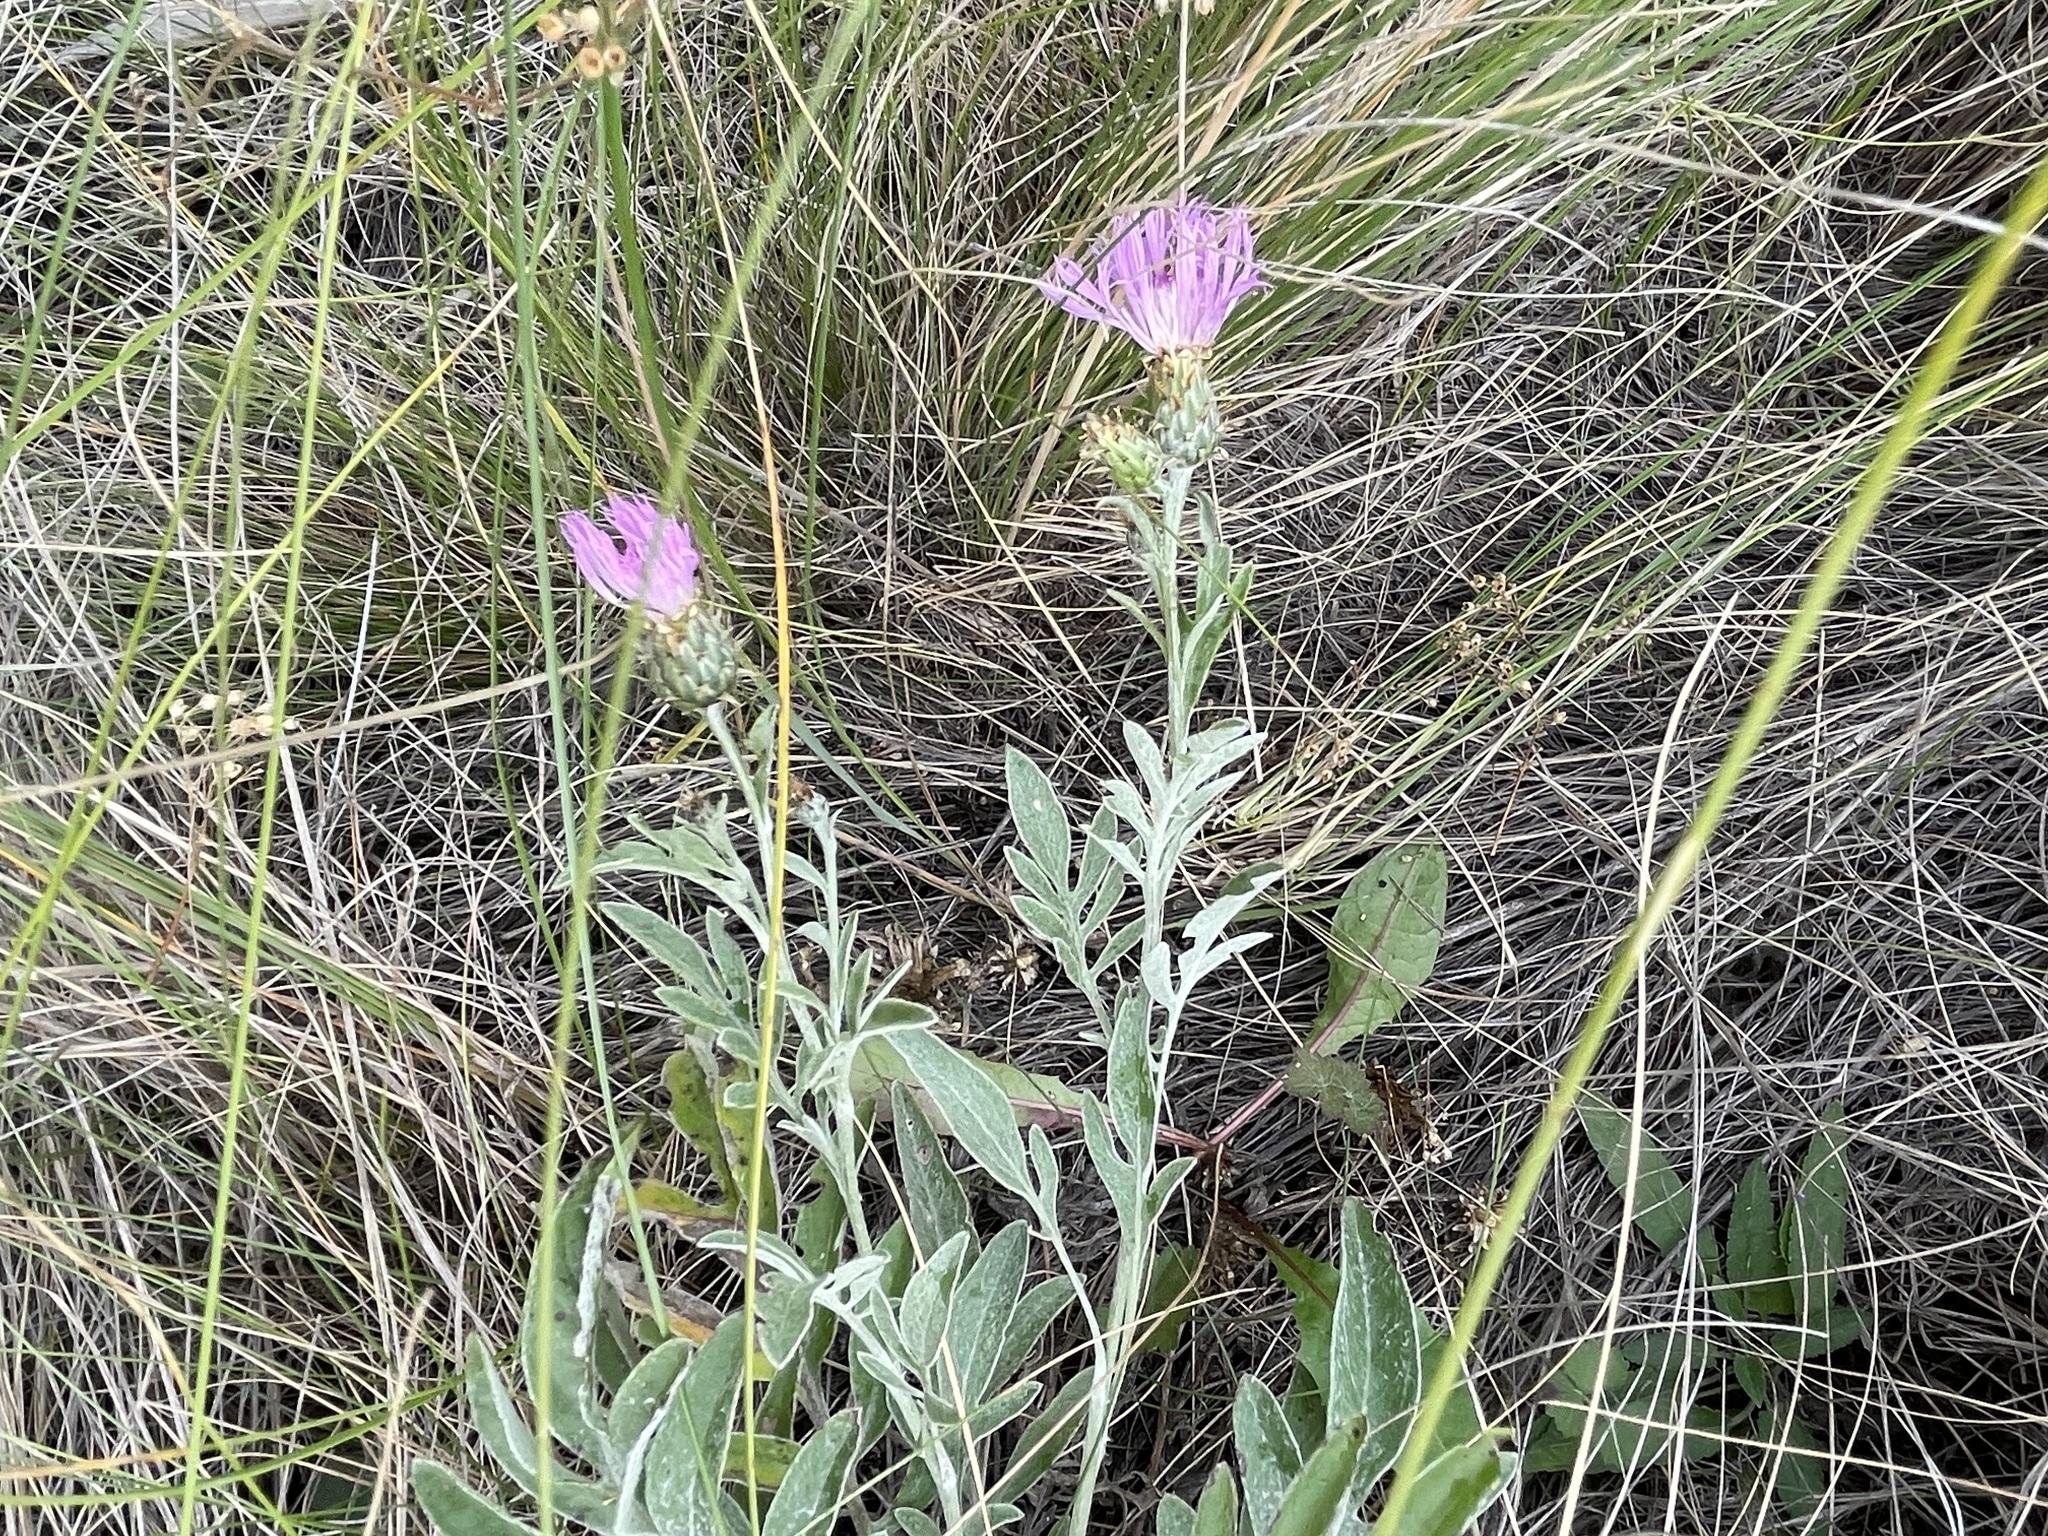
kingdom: Plantae
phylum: Tracheophyta
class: Magnoliopsida
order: Asterales
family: Asteraceae
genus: Psephellus
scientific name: Psephellus marschallianus
